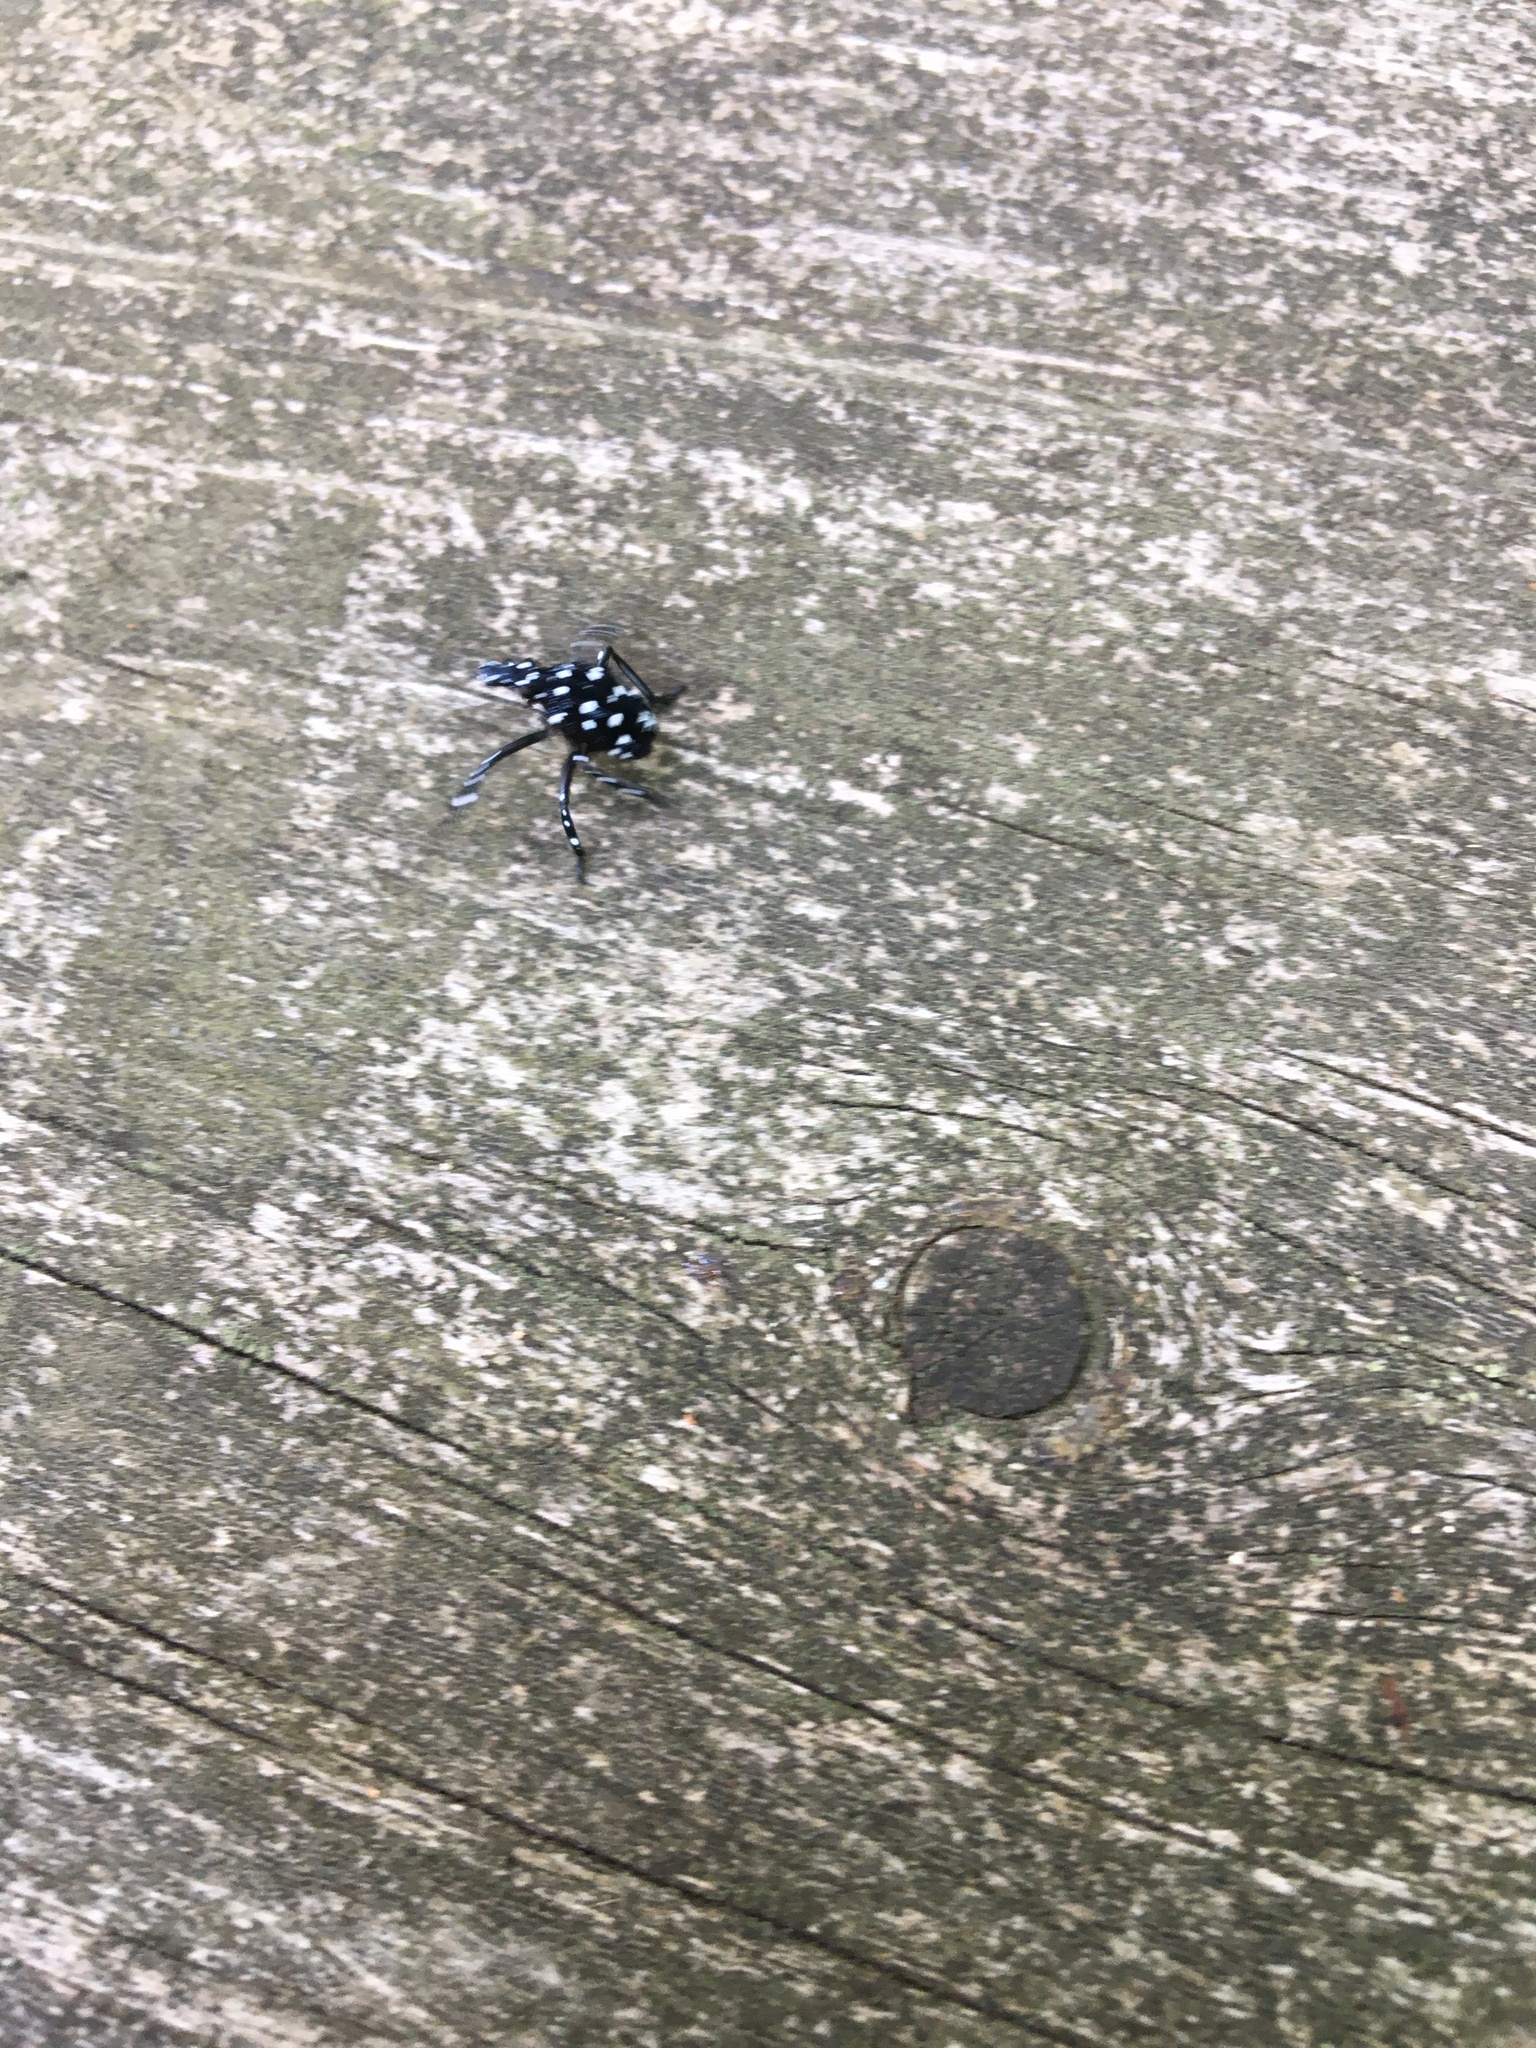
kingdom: Animalia
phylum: Arthropoda
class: Insecta
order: Hemiptera
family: Fulgoridae
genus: Lycorma
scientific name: Lycorma delicatula
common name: Spotted lanternfly
